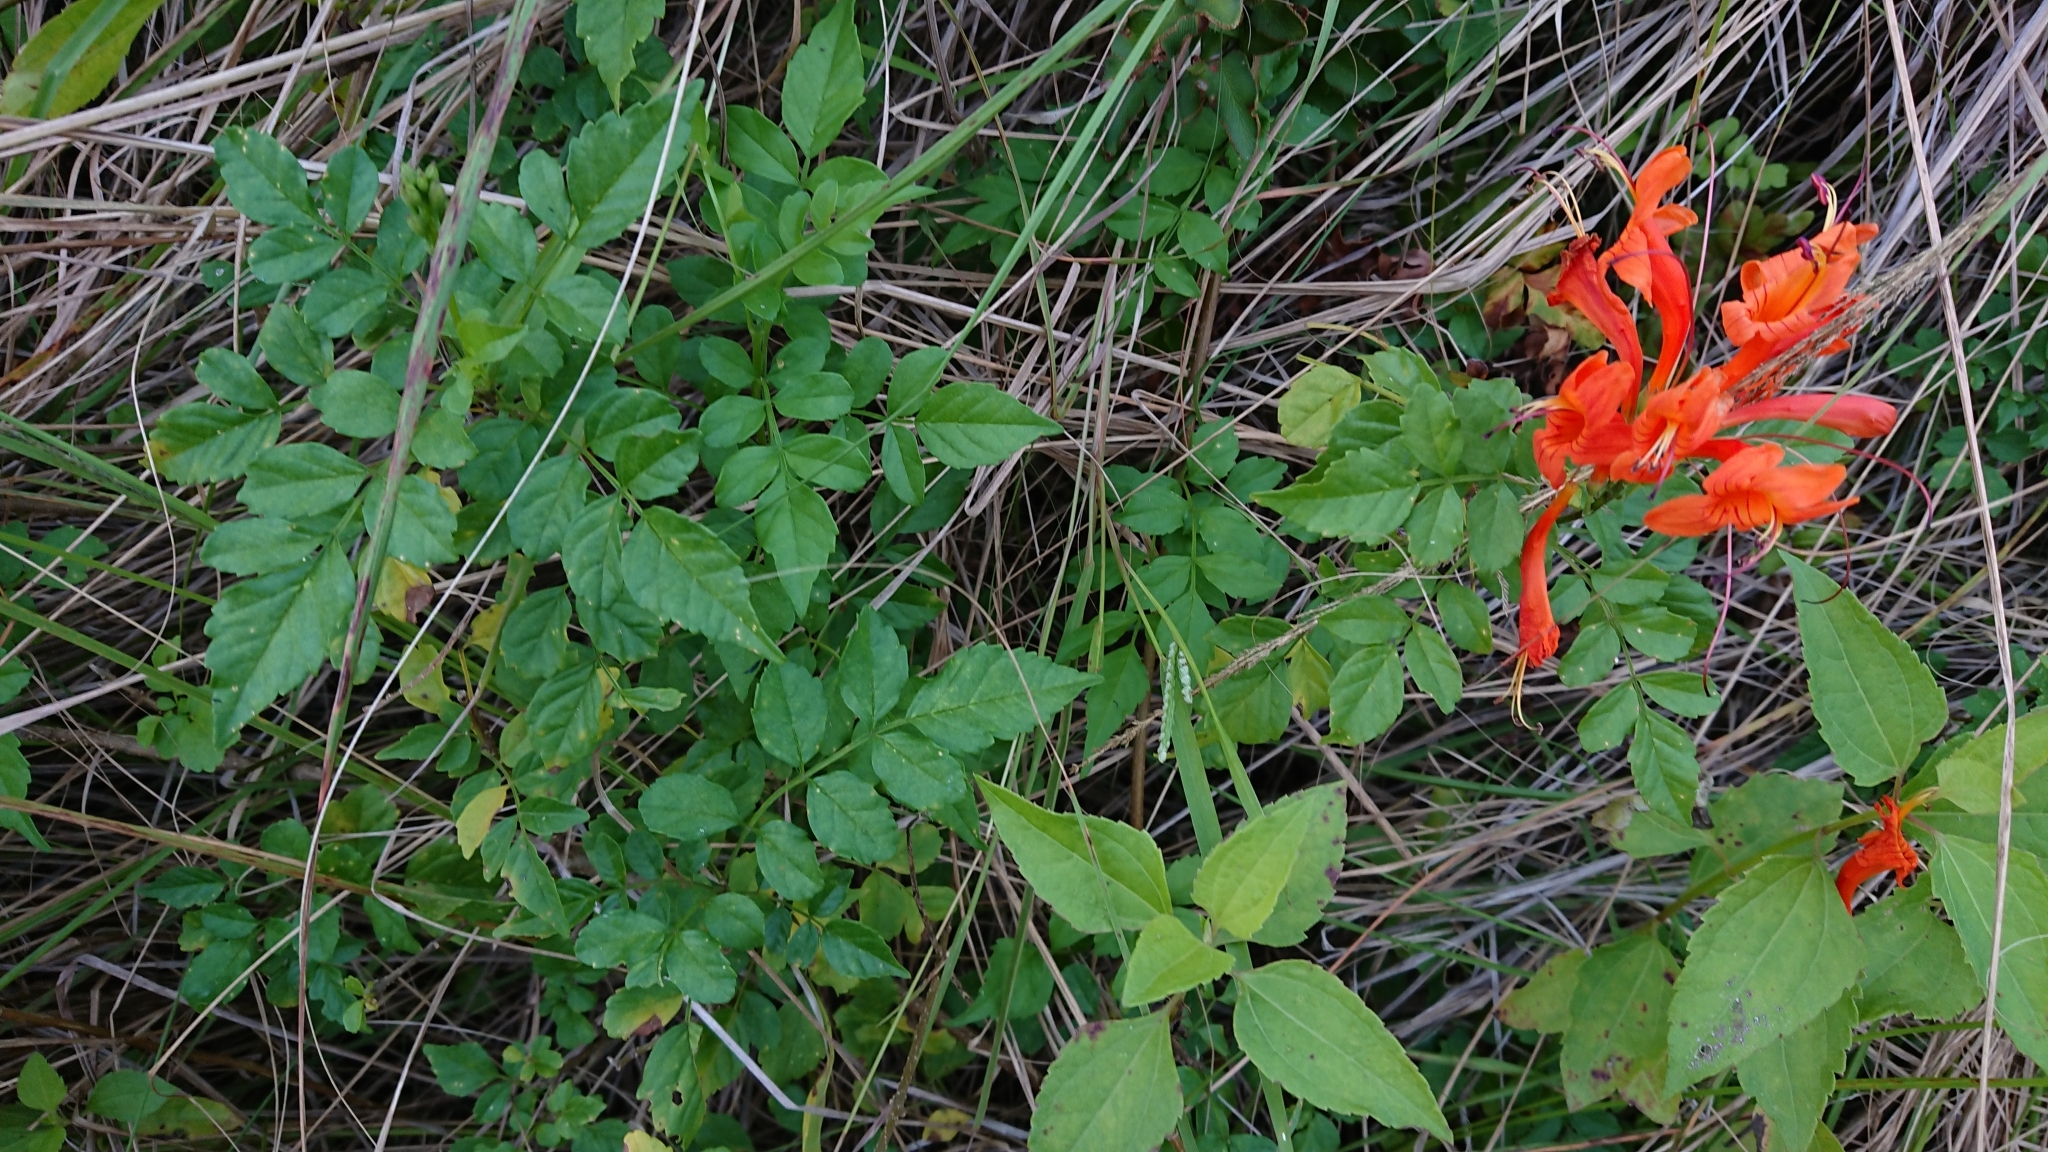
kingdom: Plantae
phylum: Tracheophyta
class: Magnoliopsida
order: Lamiales
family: Bignoniaceae
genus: Tecomaria
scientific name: Tecomaria capensis
